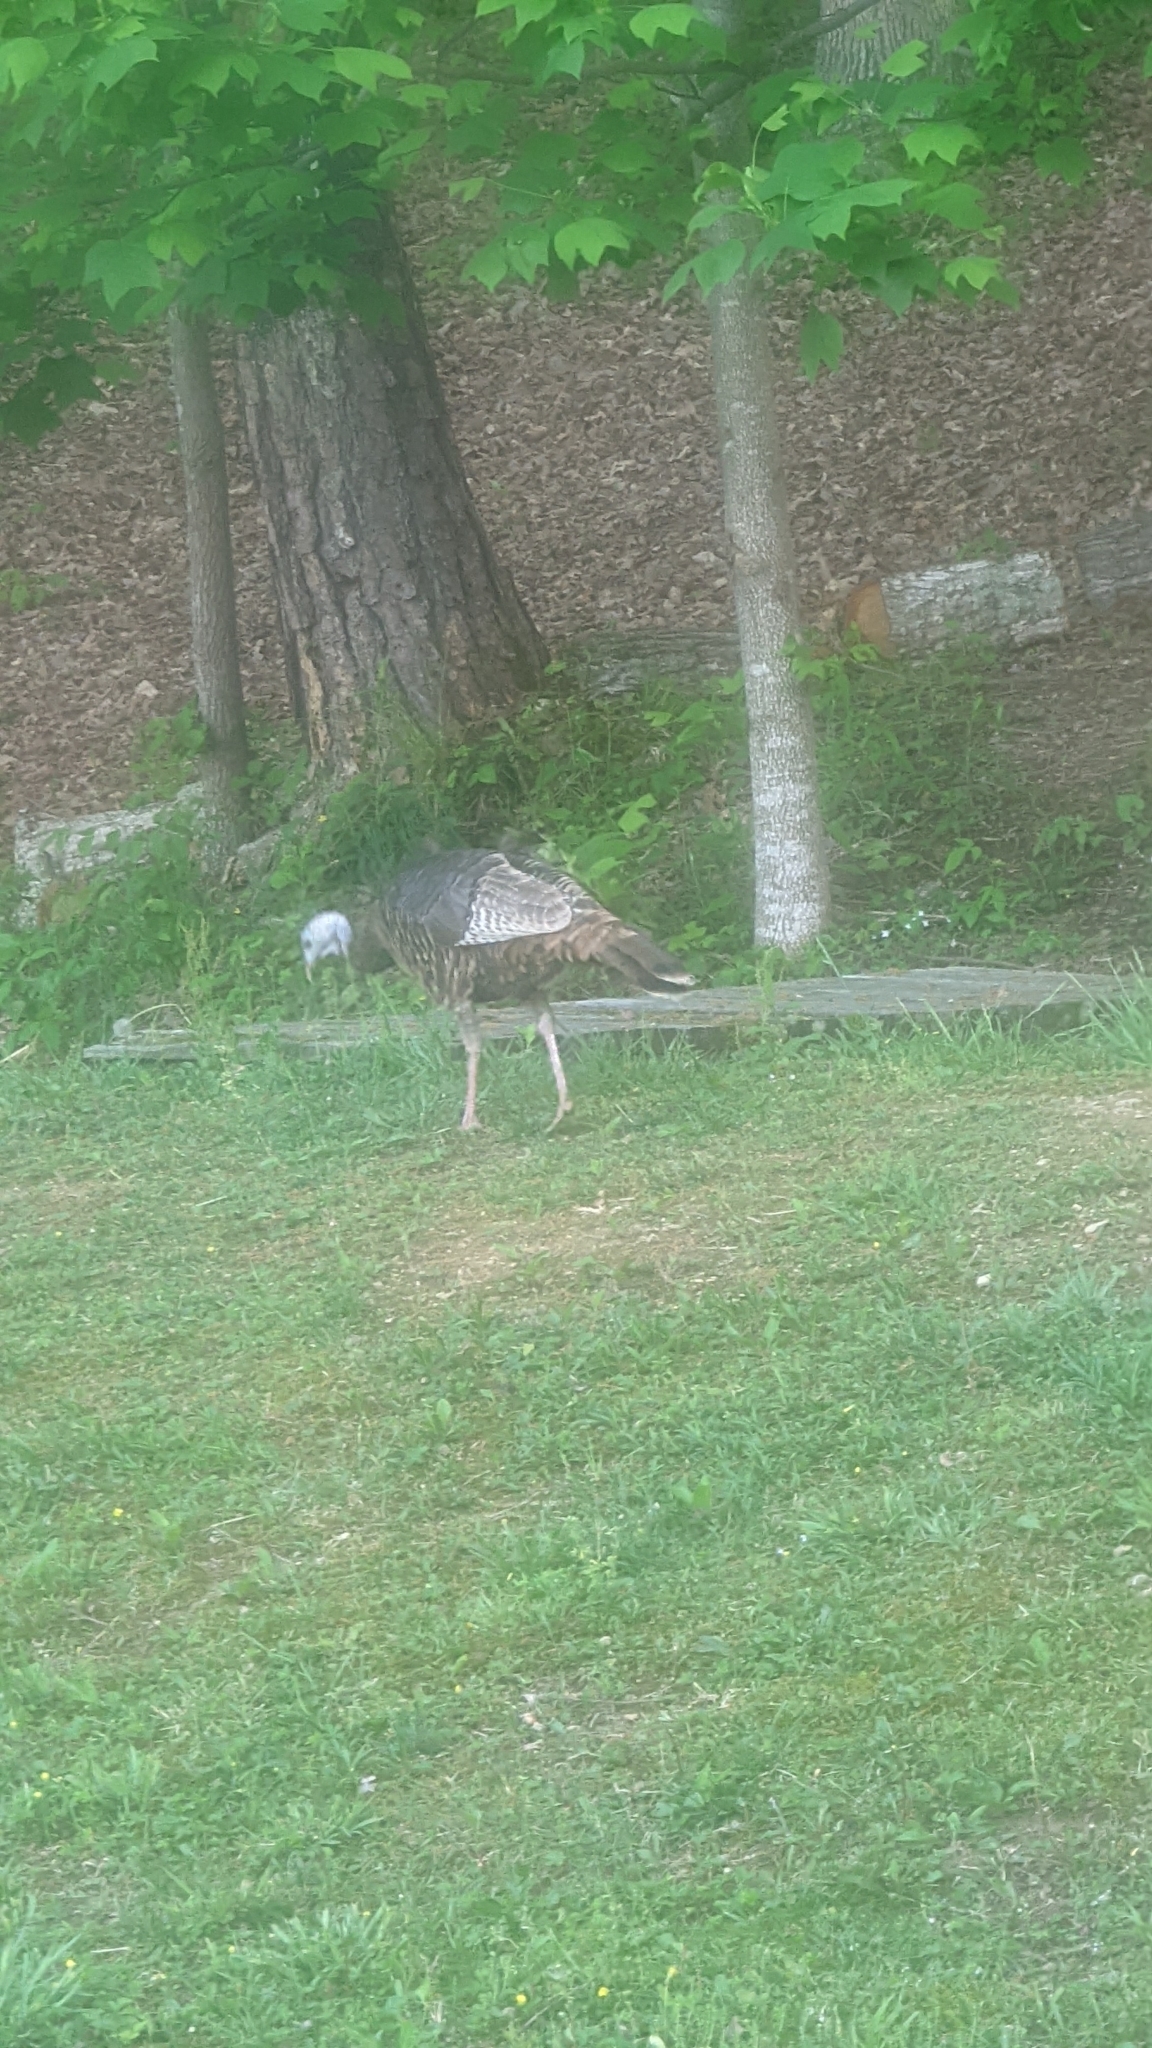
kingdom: Animalia
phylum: Chordata
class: Aves
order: Galliformes
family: Phasianidae
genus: Meleagris
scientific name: Meleagris gallopavo
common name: Wild turkey
